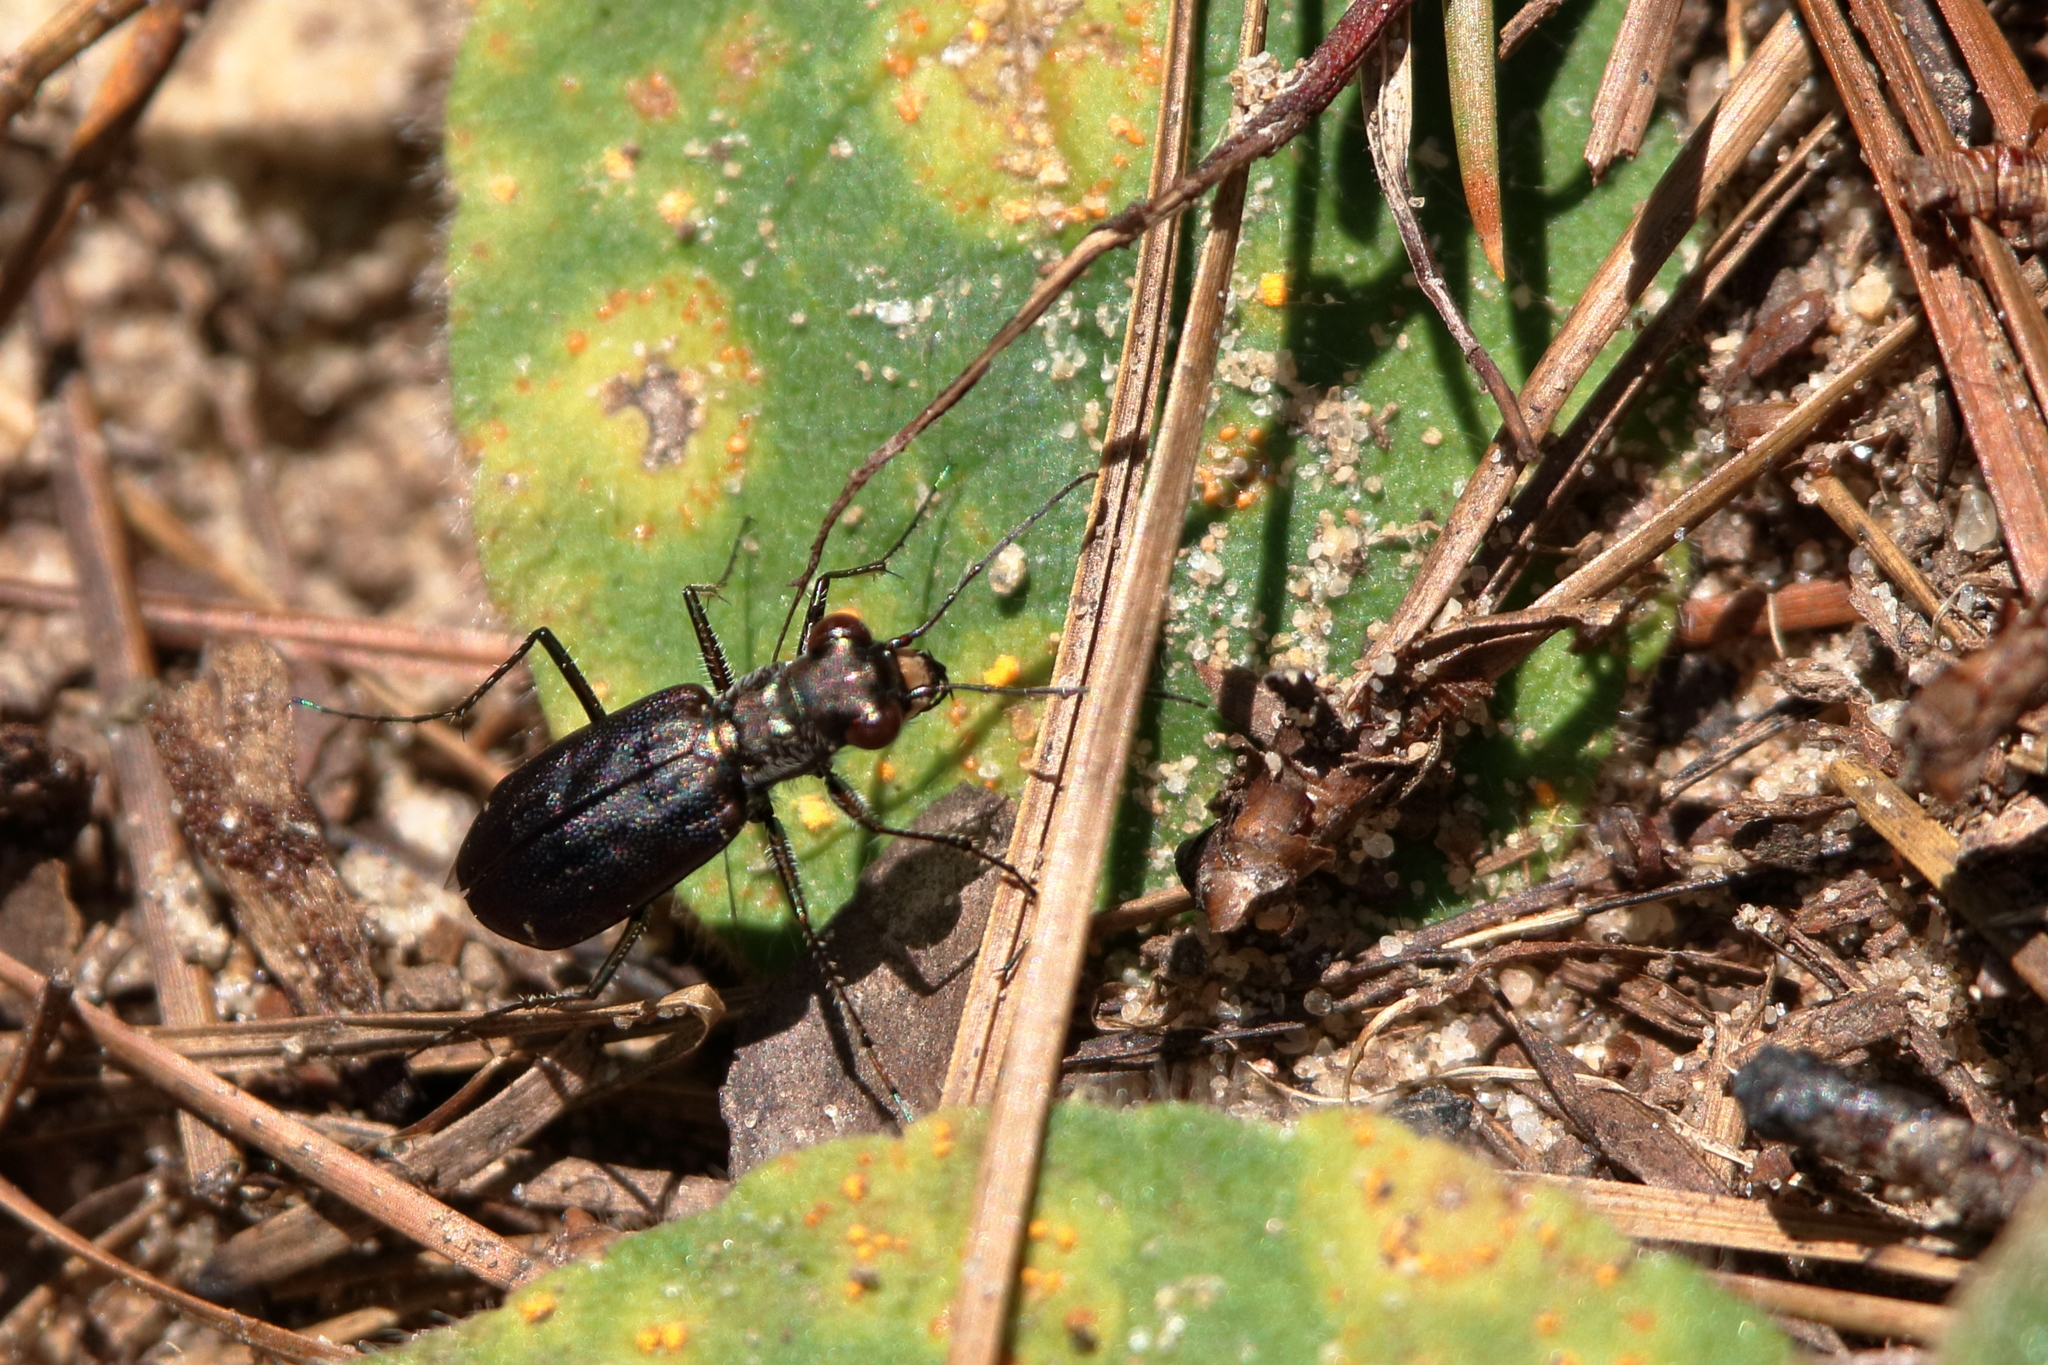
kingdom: Animalia
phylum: Arthropoda
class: Insecta
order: Coleoptera
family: Carabidae
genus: Cicindela
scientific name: Cicindela punctulata
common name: Punctured tiger beetle
